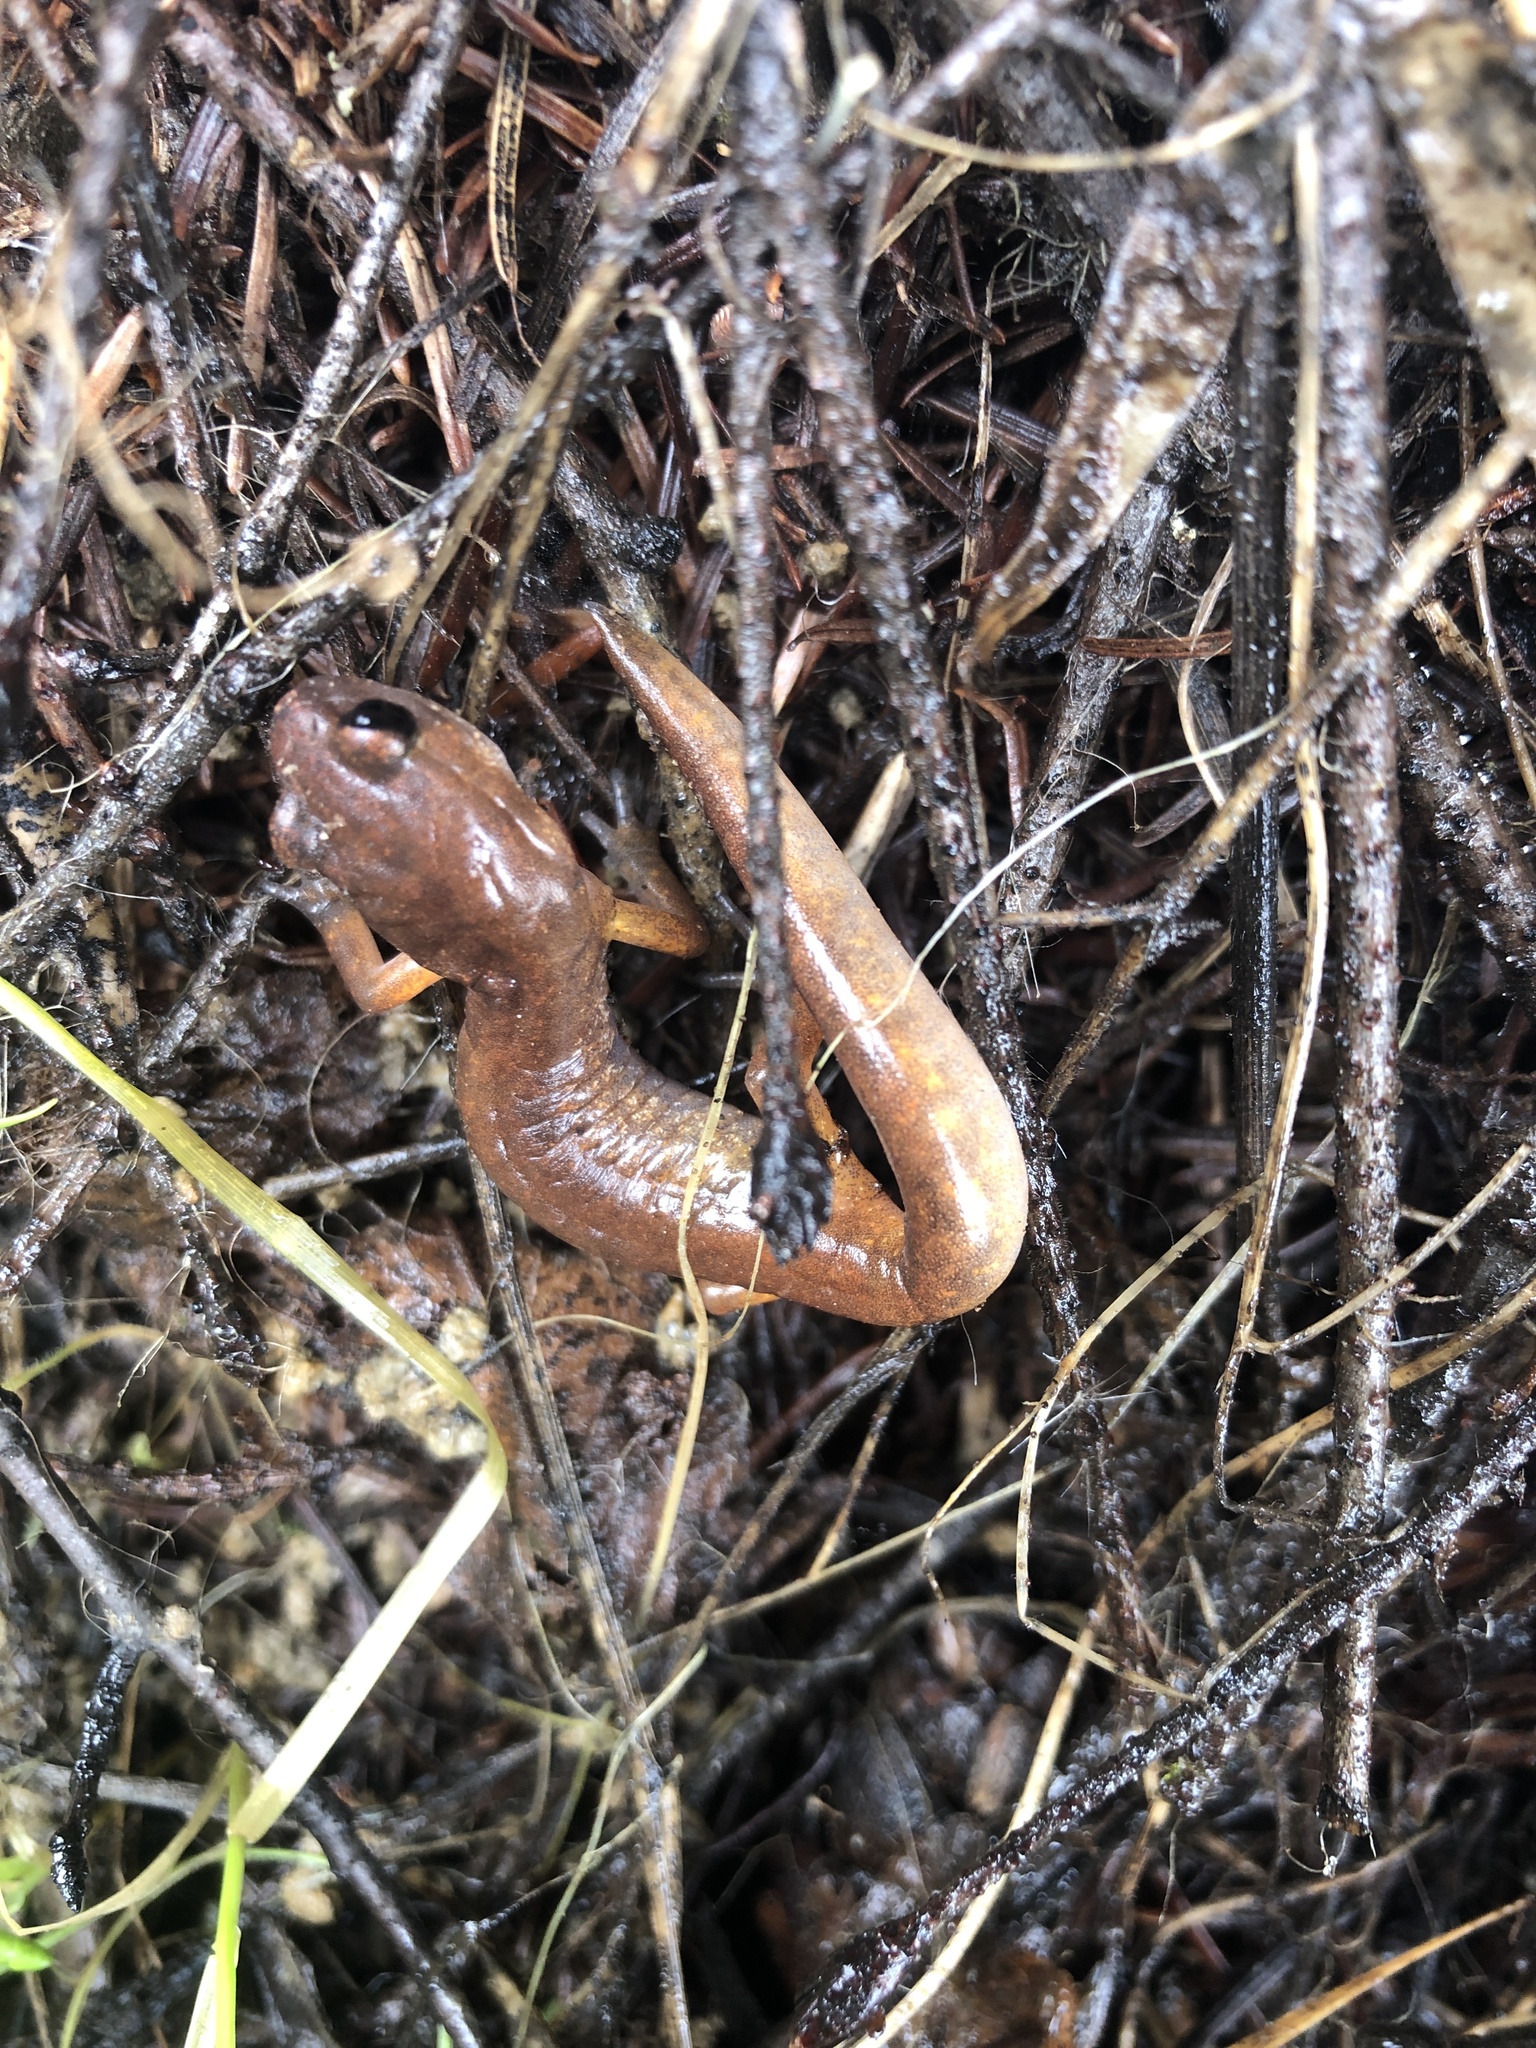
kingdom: Animalia
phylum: Chordata
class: Amphibia
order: Caudata
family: Plethodontidae
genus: Ensatina
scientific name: Ensatina eschscholtzii
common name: Ensatina
